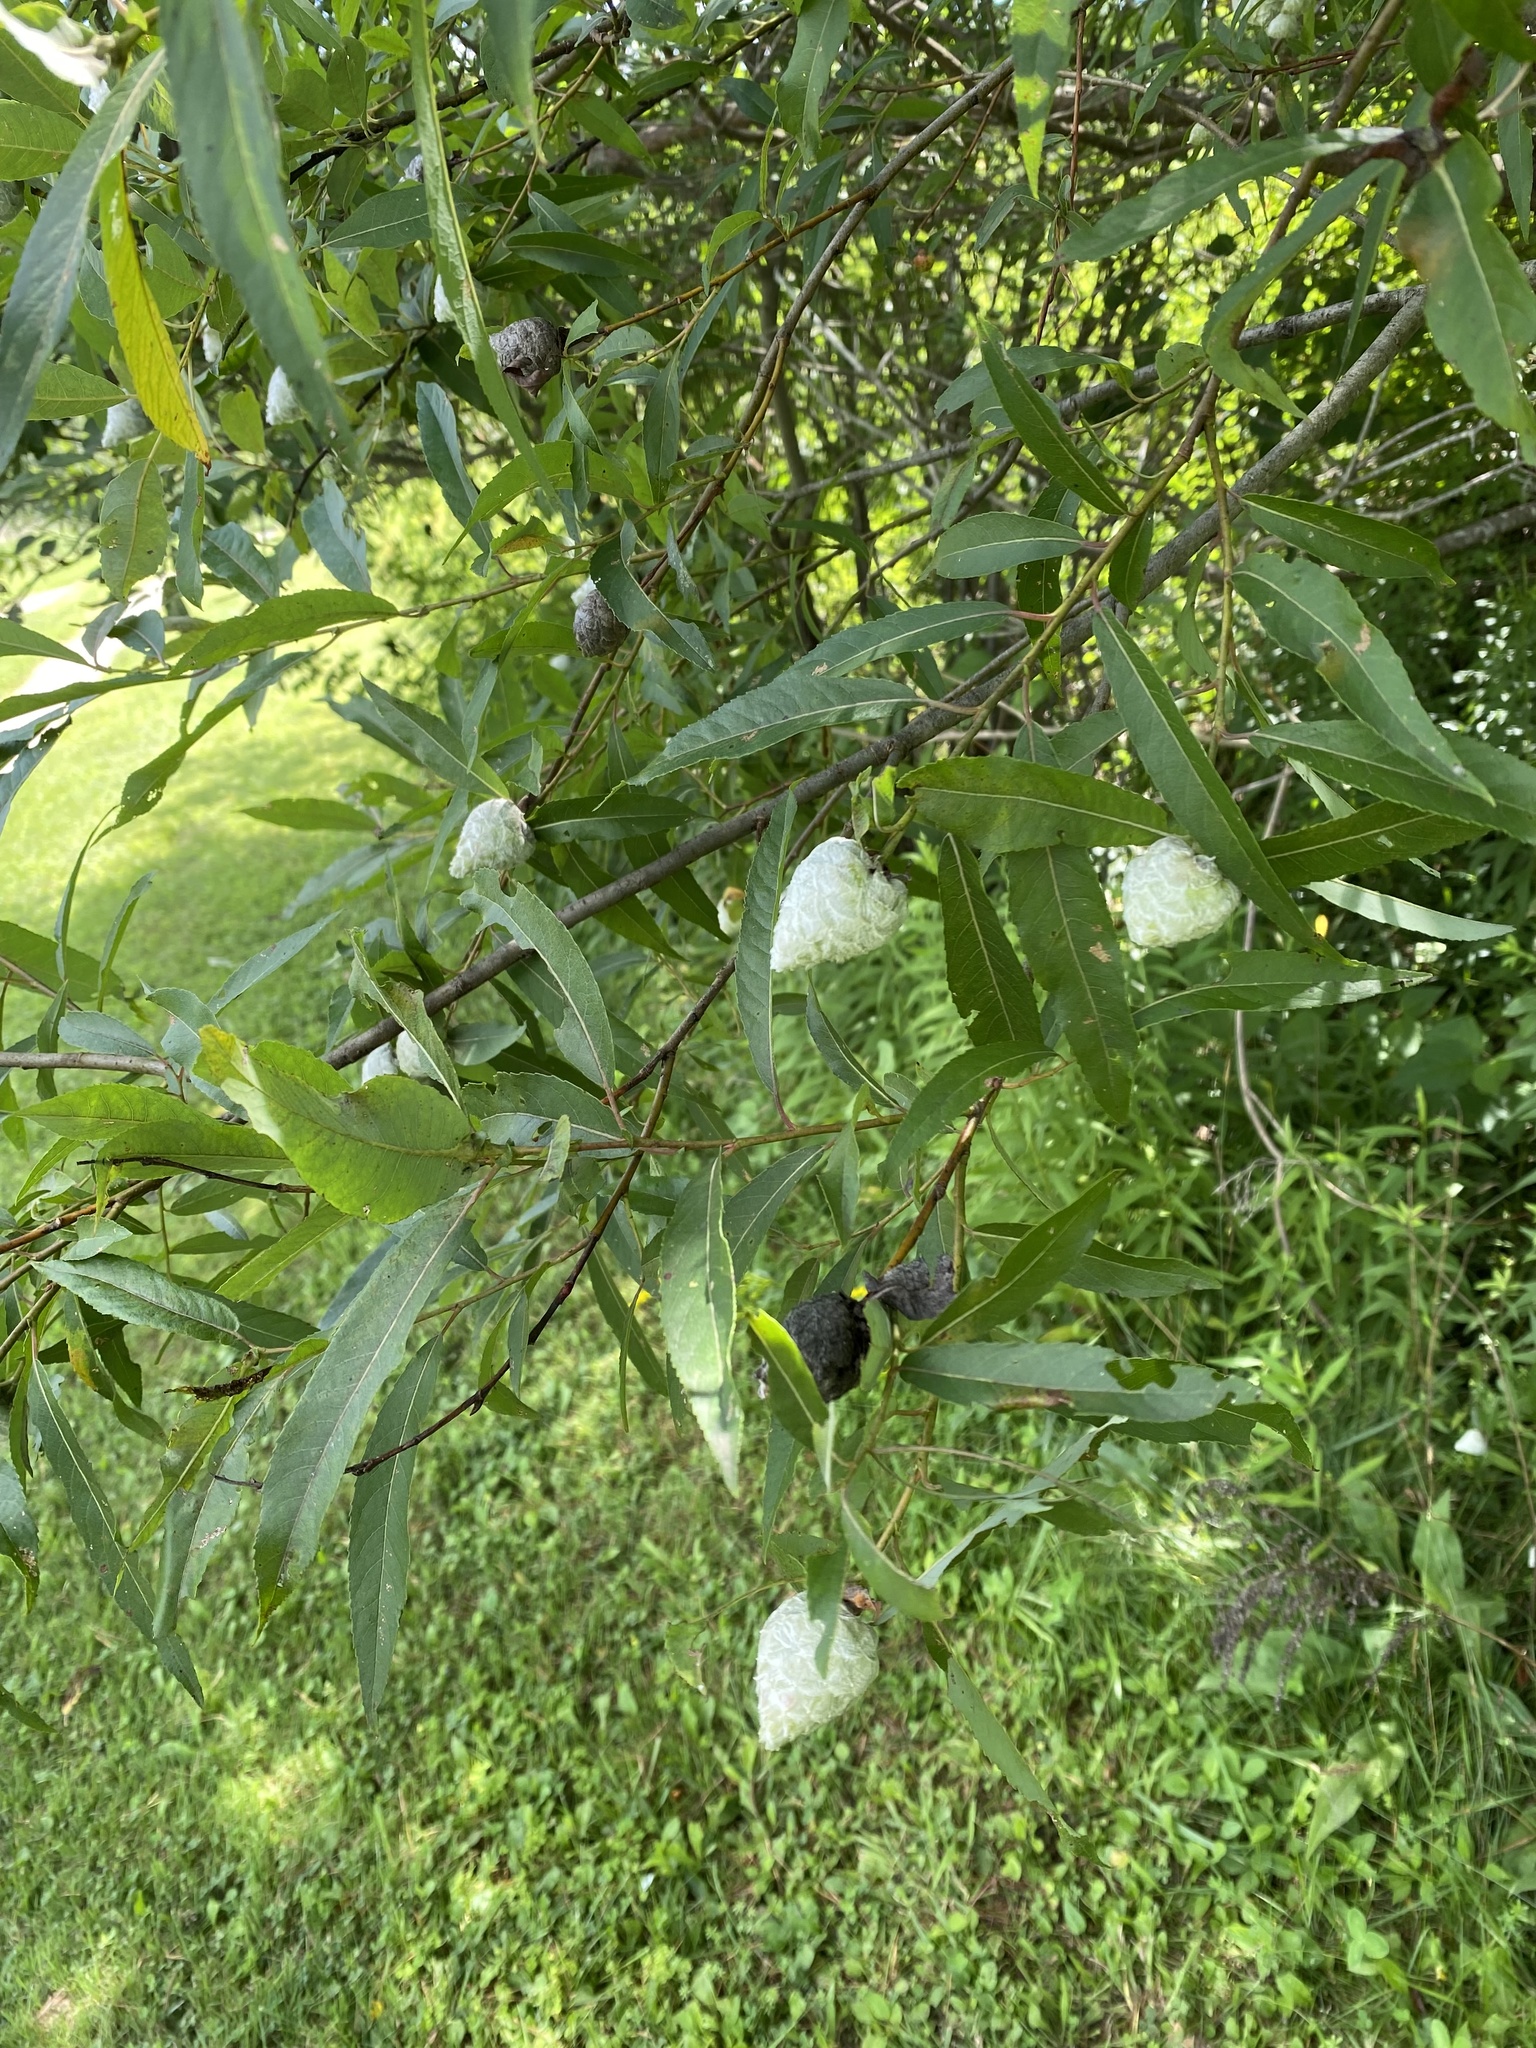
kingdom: Animalia
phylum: Arthropoda
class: Insecta
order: Diptera
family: Cecidomyiidae
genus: Rabdophaga
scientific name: Rabdophaga strobiloides
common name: Willow pinecone gall midge
